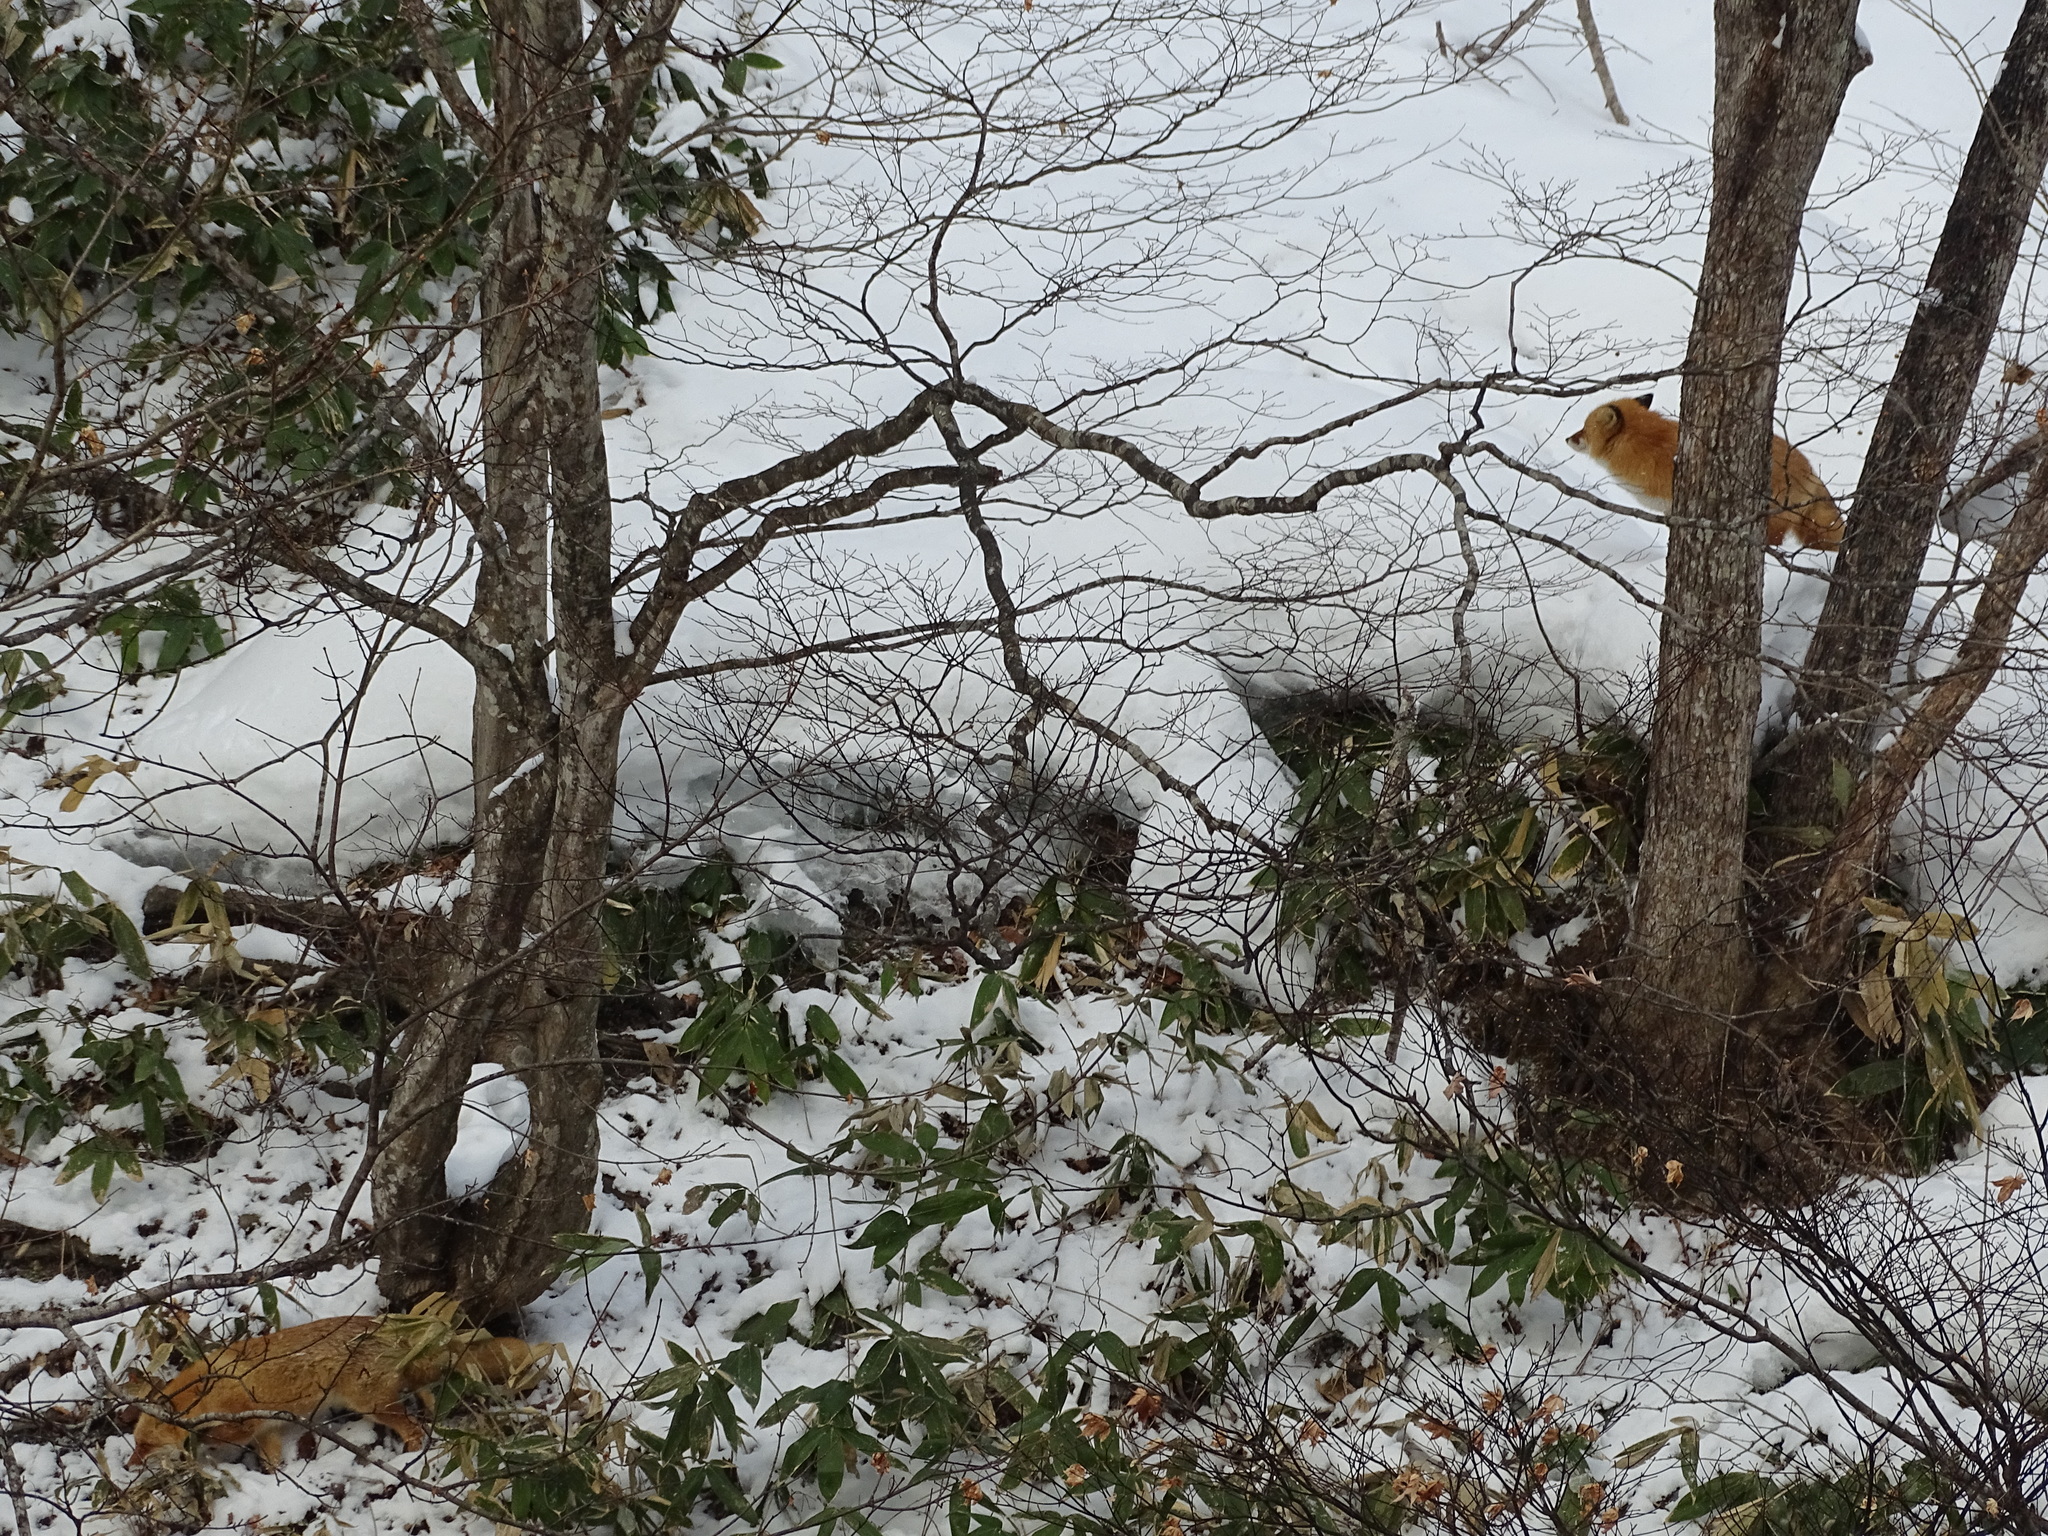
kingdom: Animalia
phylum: Chordata
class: Mammalia
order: Carnivora
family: Canidae
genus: Vulpes
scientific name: Vulpes vulpes
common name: Red fox
